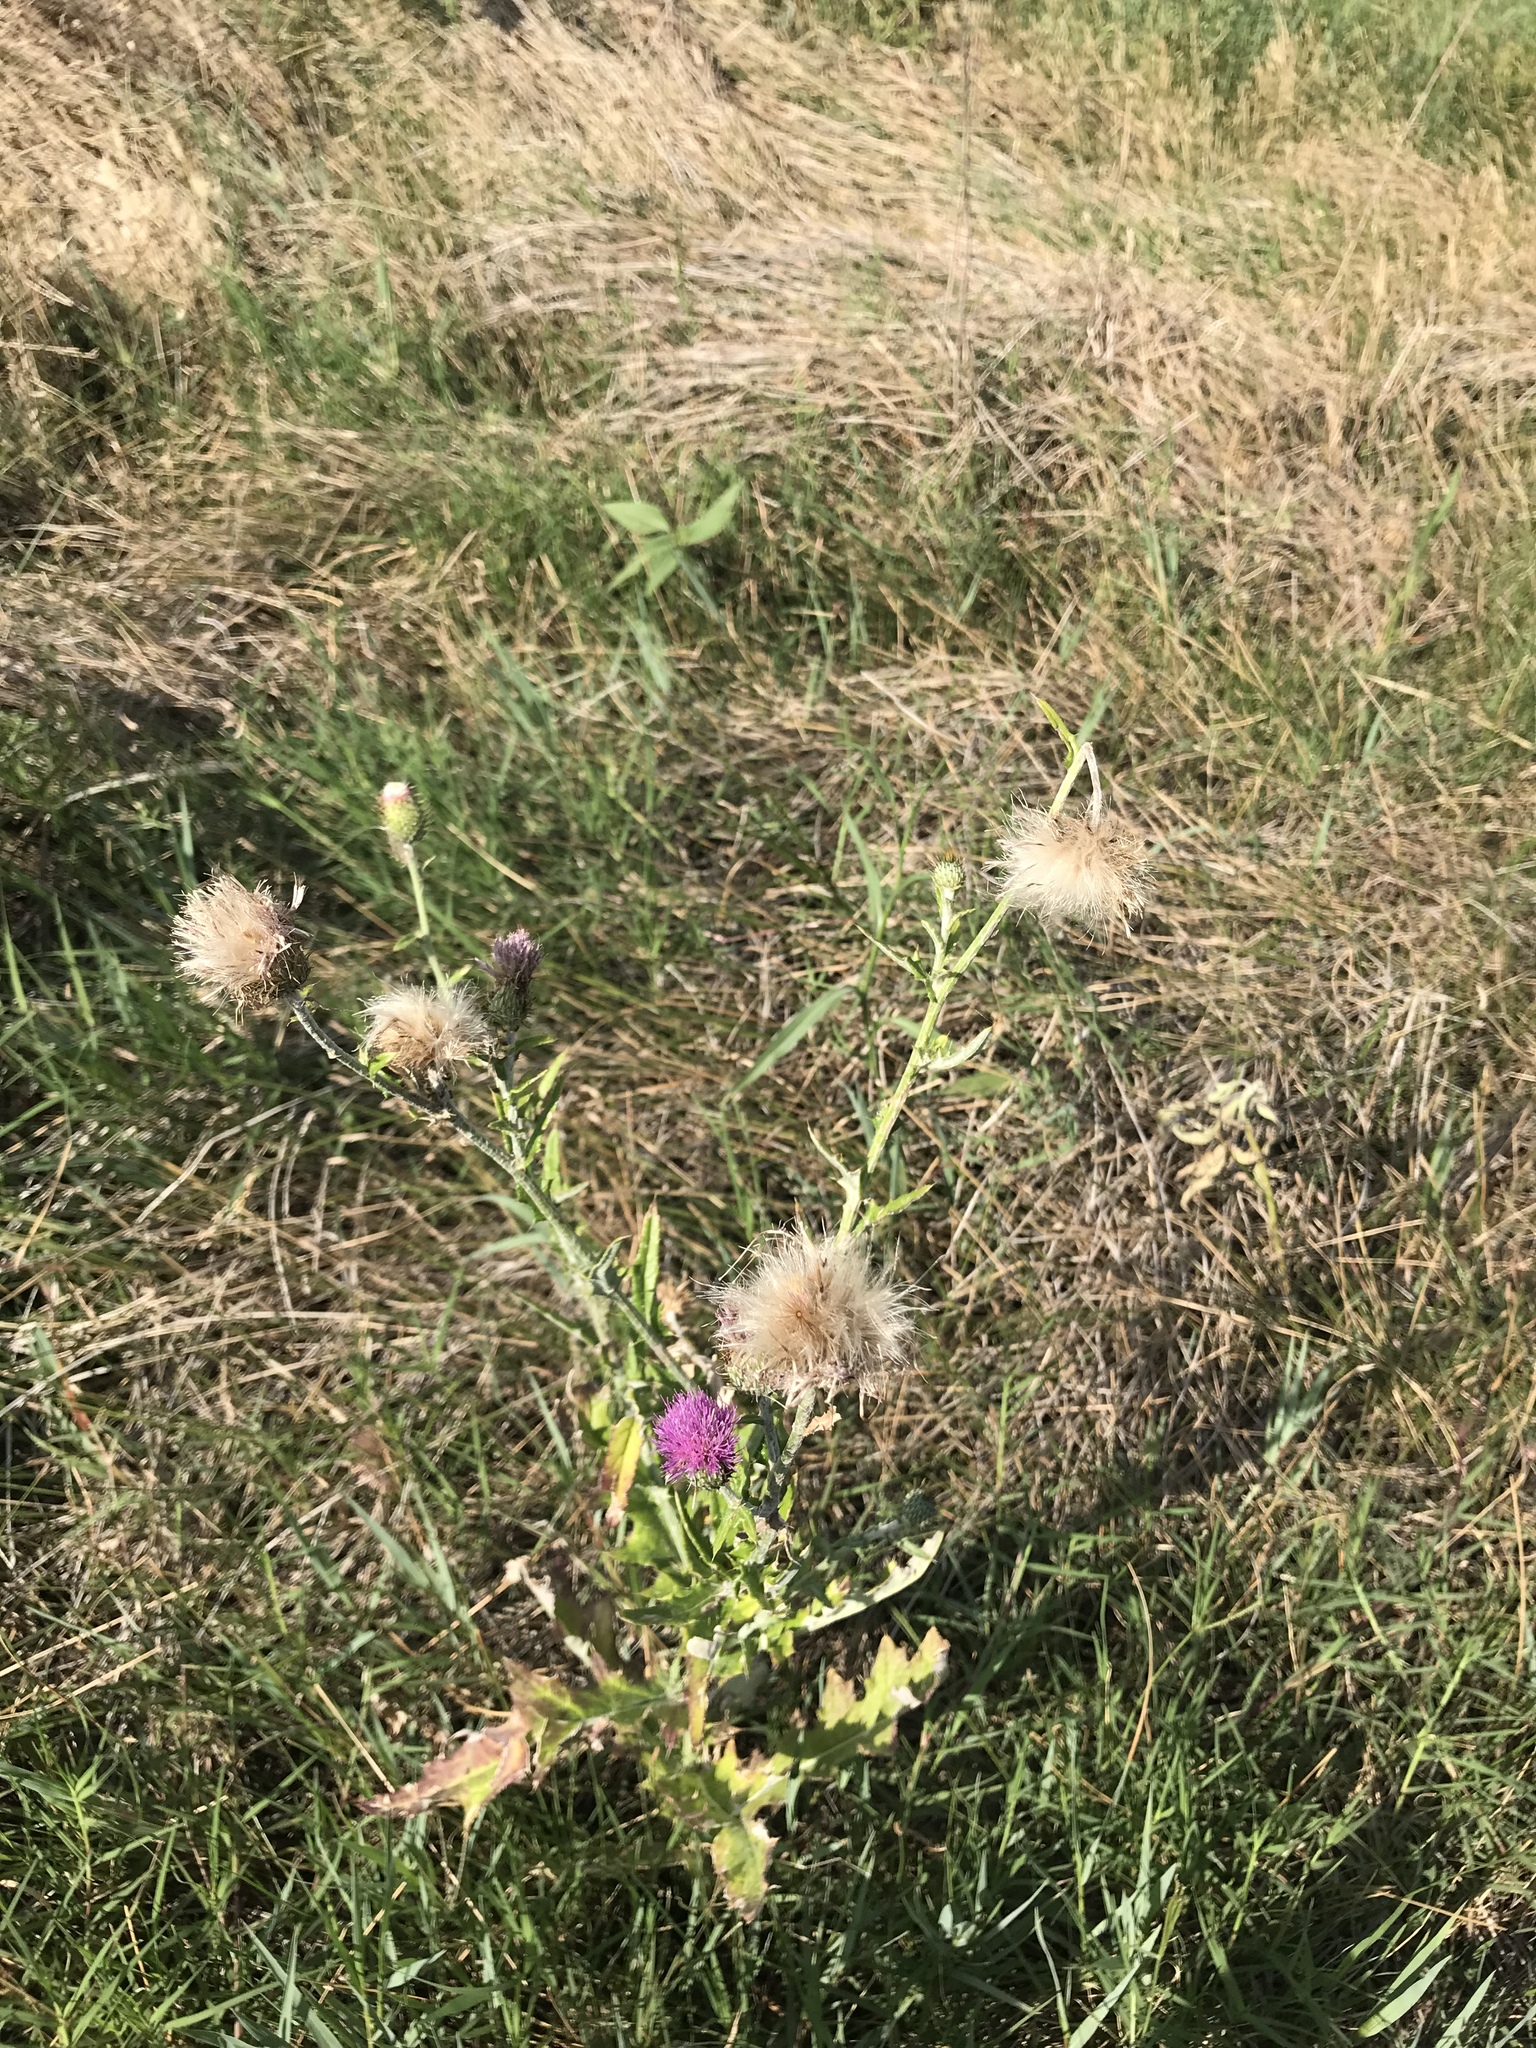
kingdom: Plantae
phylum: Tracheophyta
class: Magnoliopsida
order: Asterales
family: Asteraceae
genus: Cirsium
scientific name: Cirsium texanum
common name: Texas purple thistle
